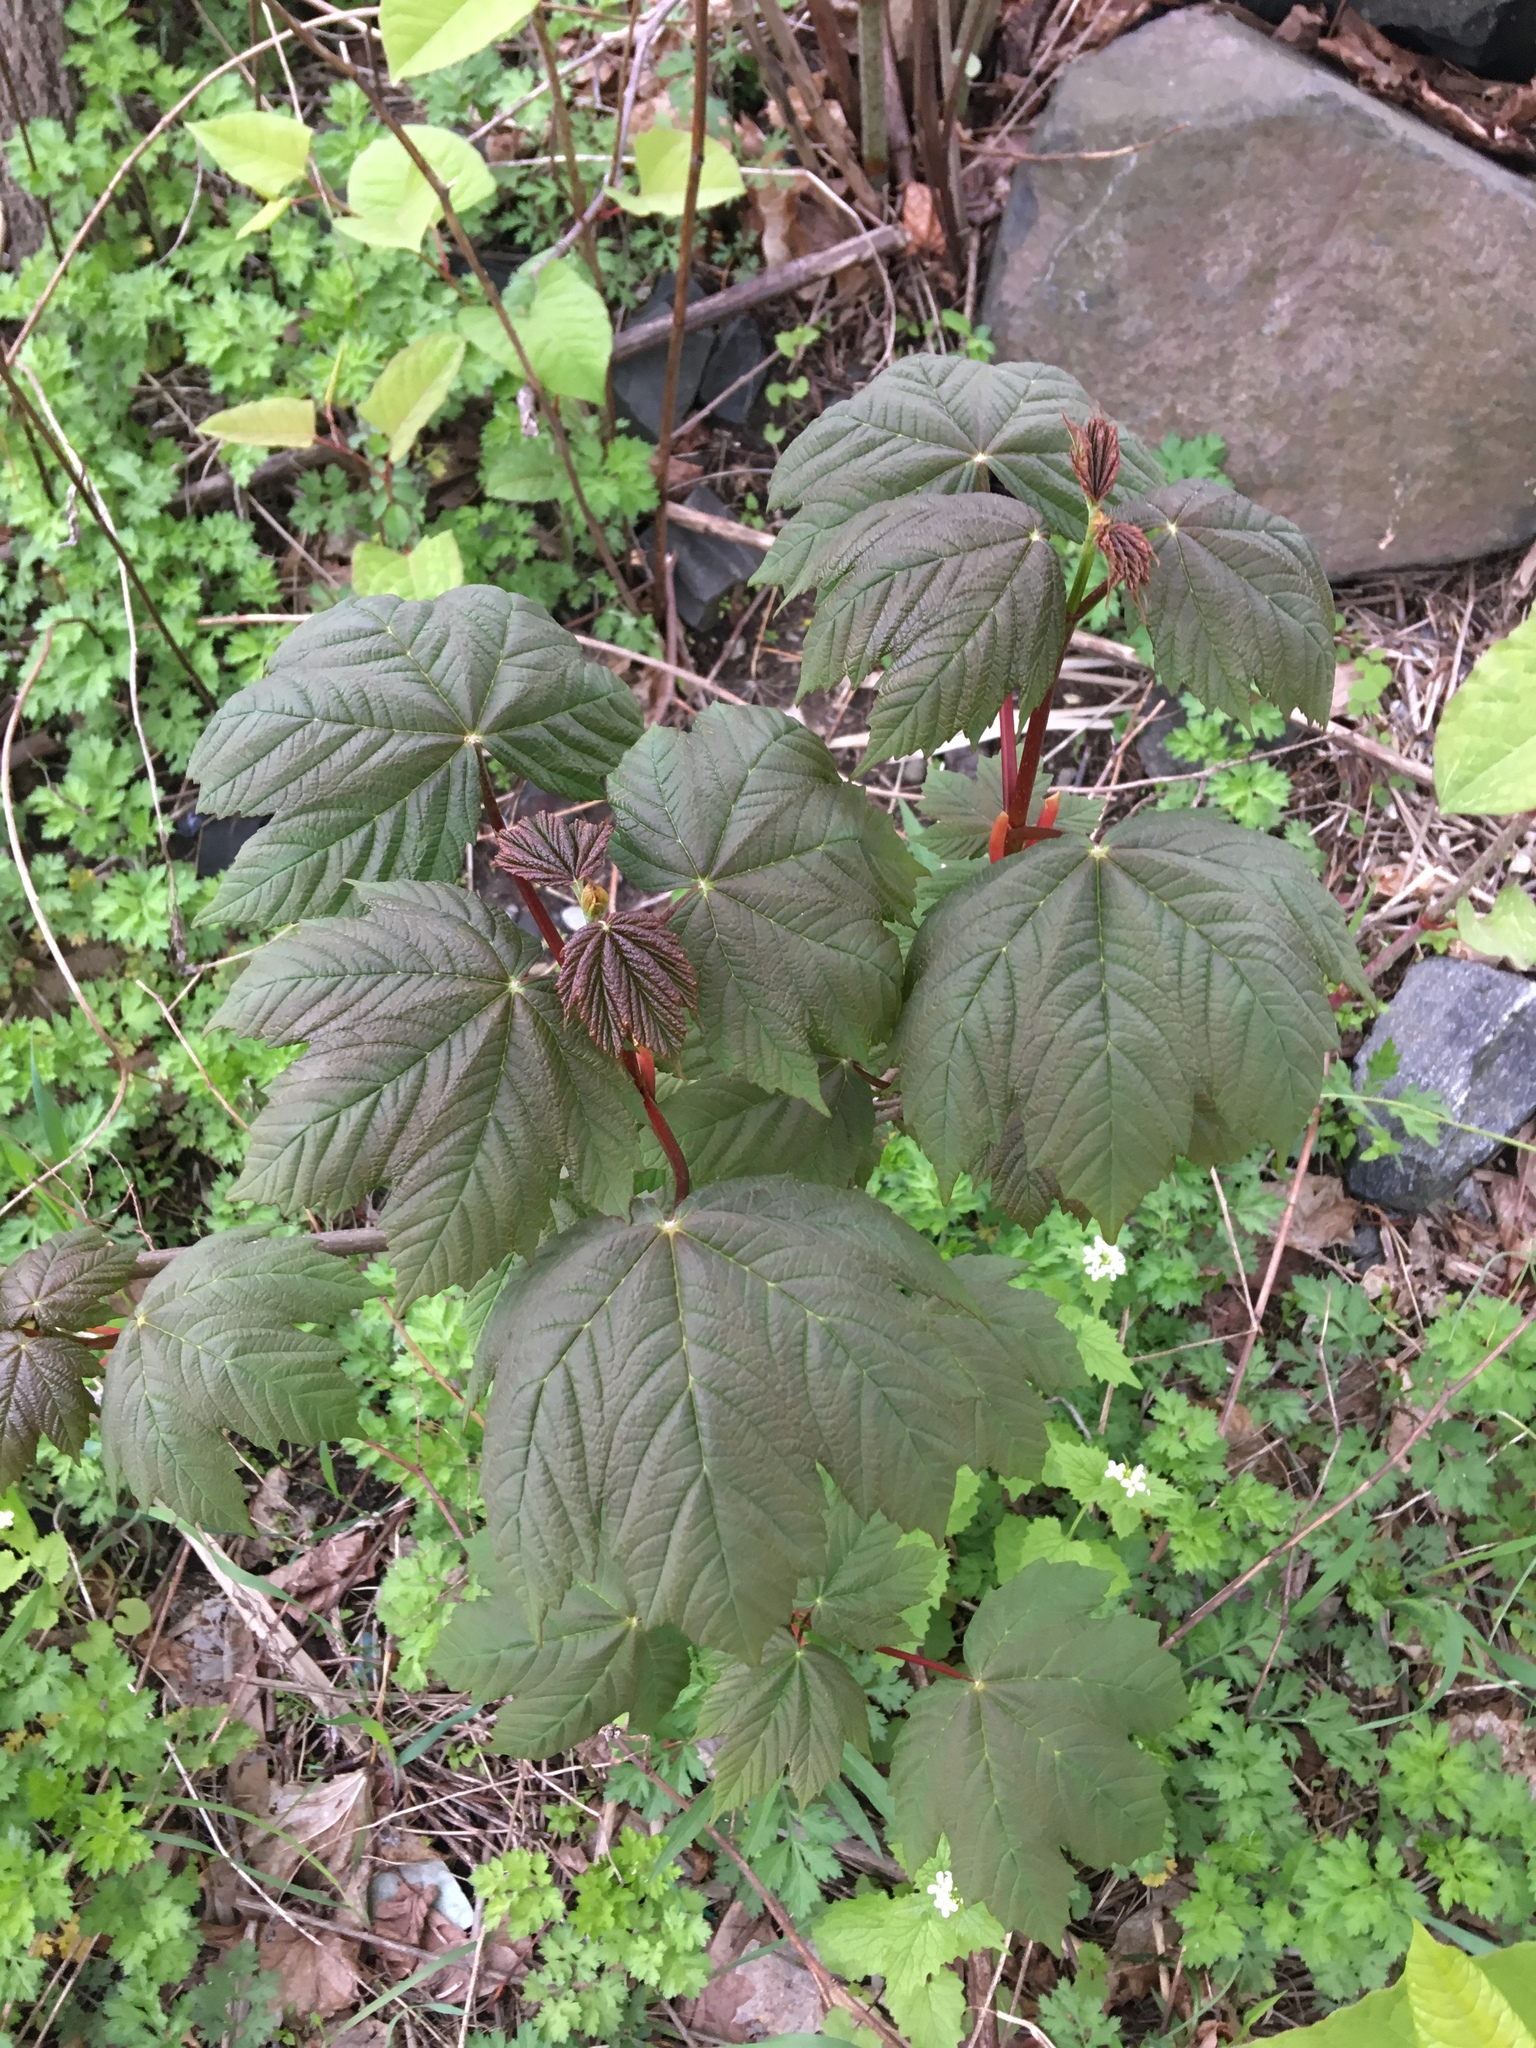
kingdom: Plantae
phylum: Tracheophyta
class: Magnoliopsida
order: Sapindales
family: Sapindaceae
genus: Acer
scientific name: Acer pseudoplatanus
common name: Sycamore
